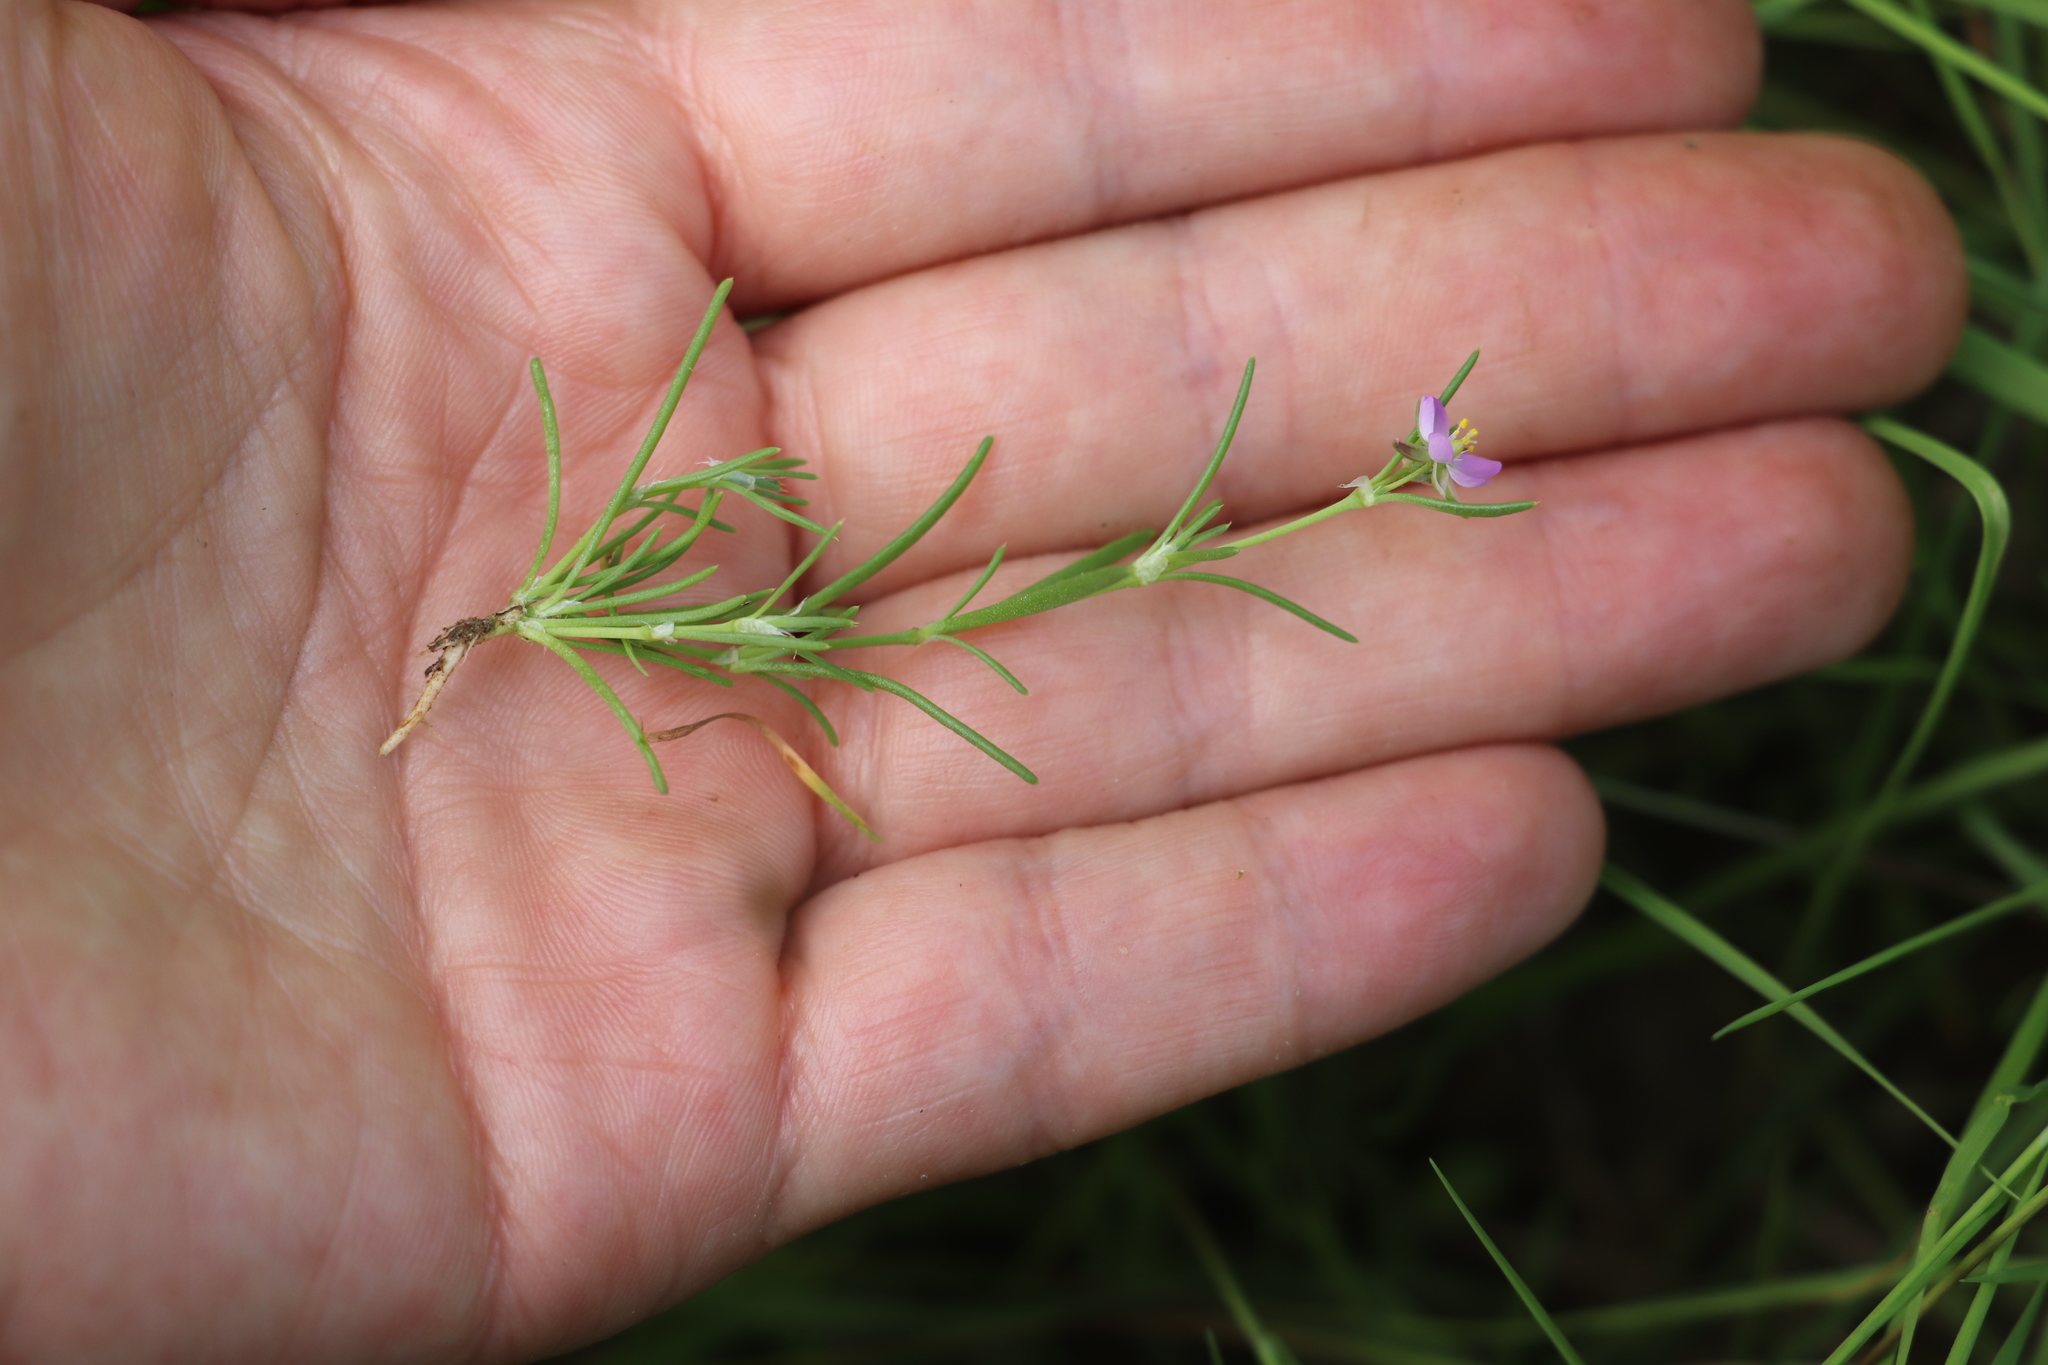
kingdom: Plantae
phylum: Tracheophyta
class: Magnoliopsida
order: Caryophyllales
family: Caryophyllaceae
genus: Spergularia
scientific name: Spergularia rubra
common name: Red sand-spurrey
